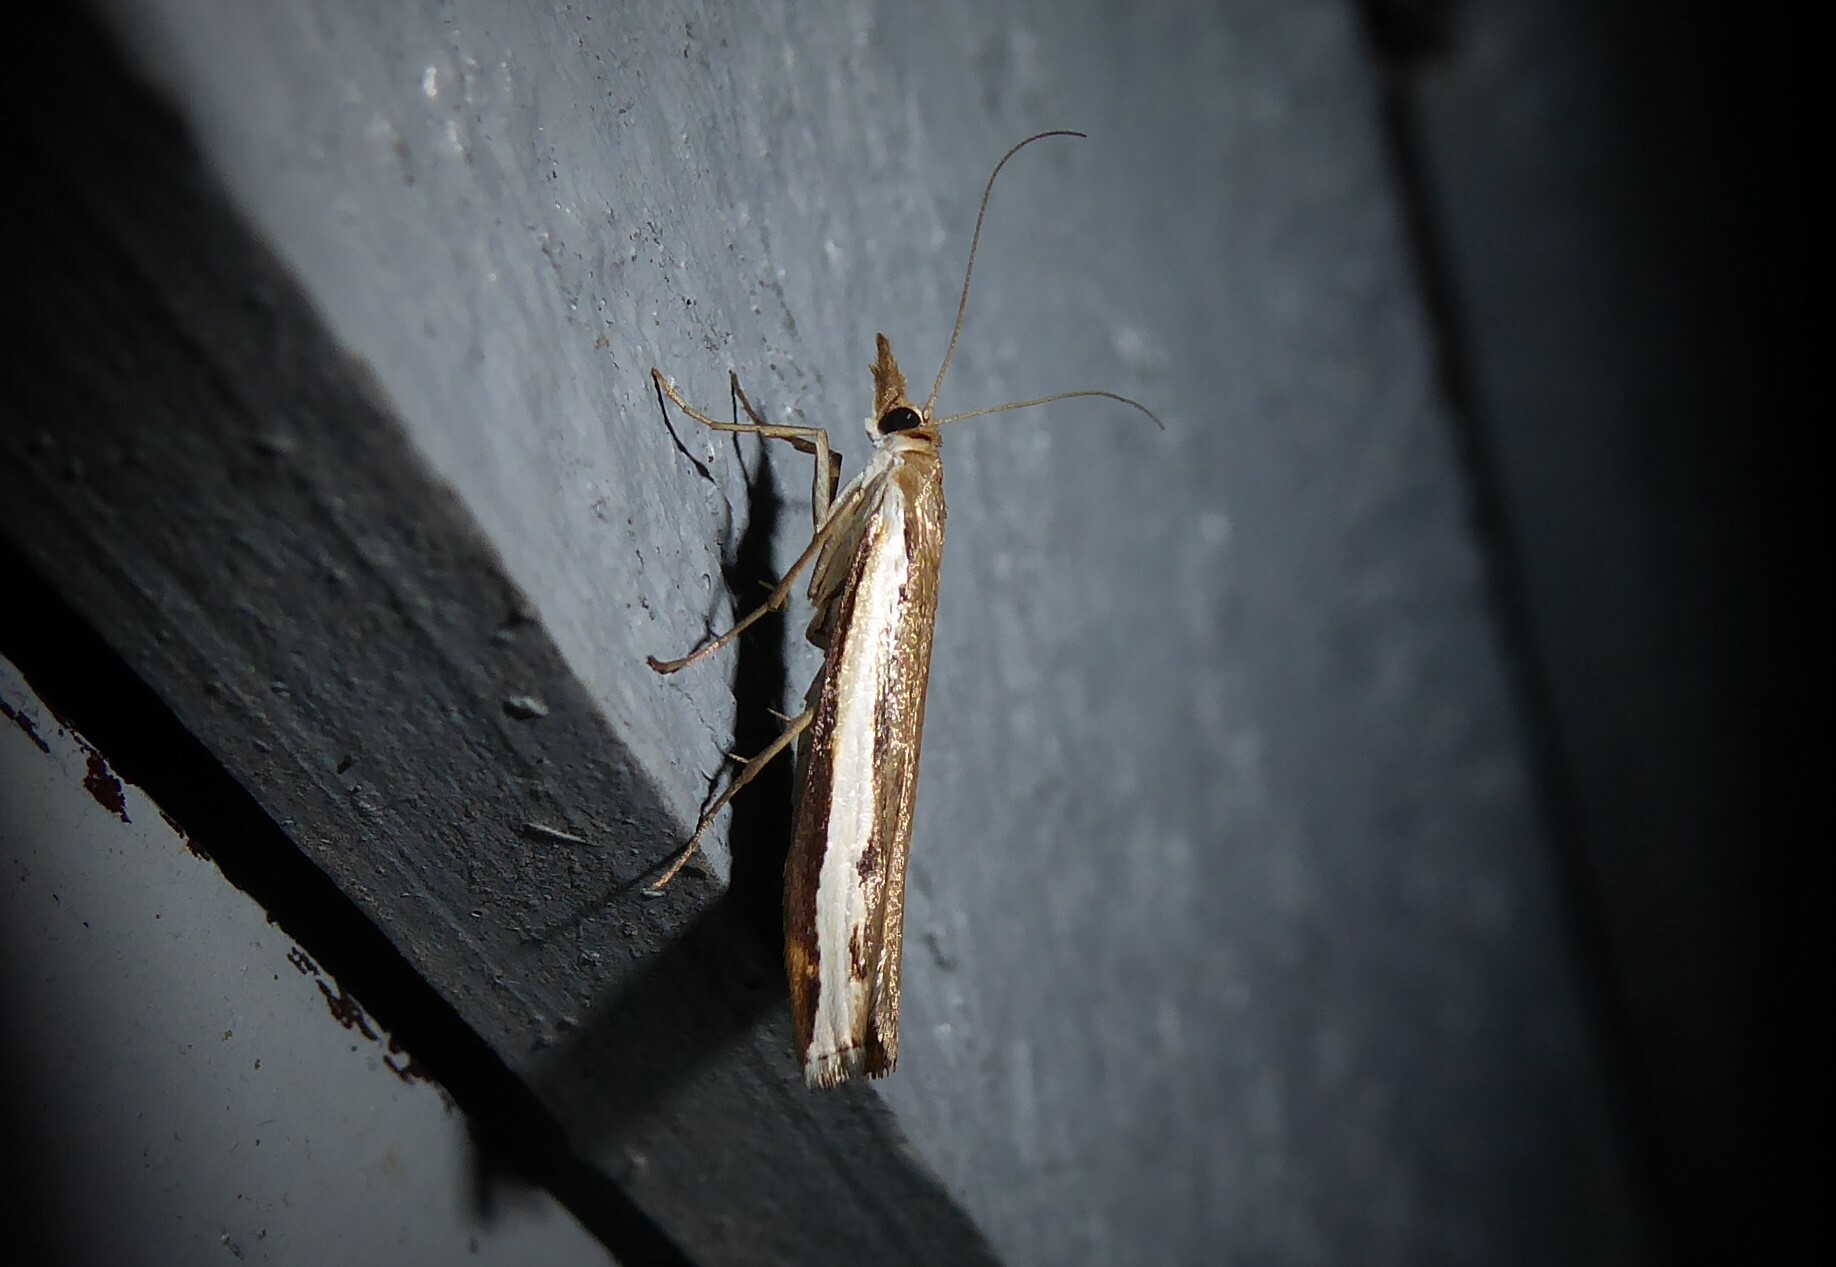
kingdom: Animalia
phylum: Arthropoda
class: Insecta
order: Lepidoptera
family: Crambidae
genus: Orocrambus
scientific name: Orocrambus flexuosellus
